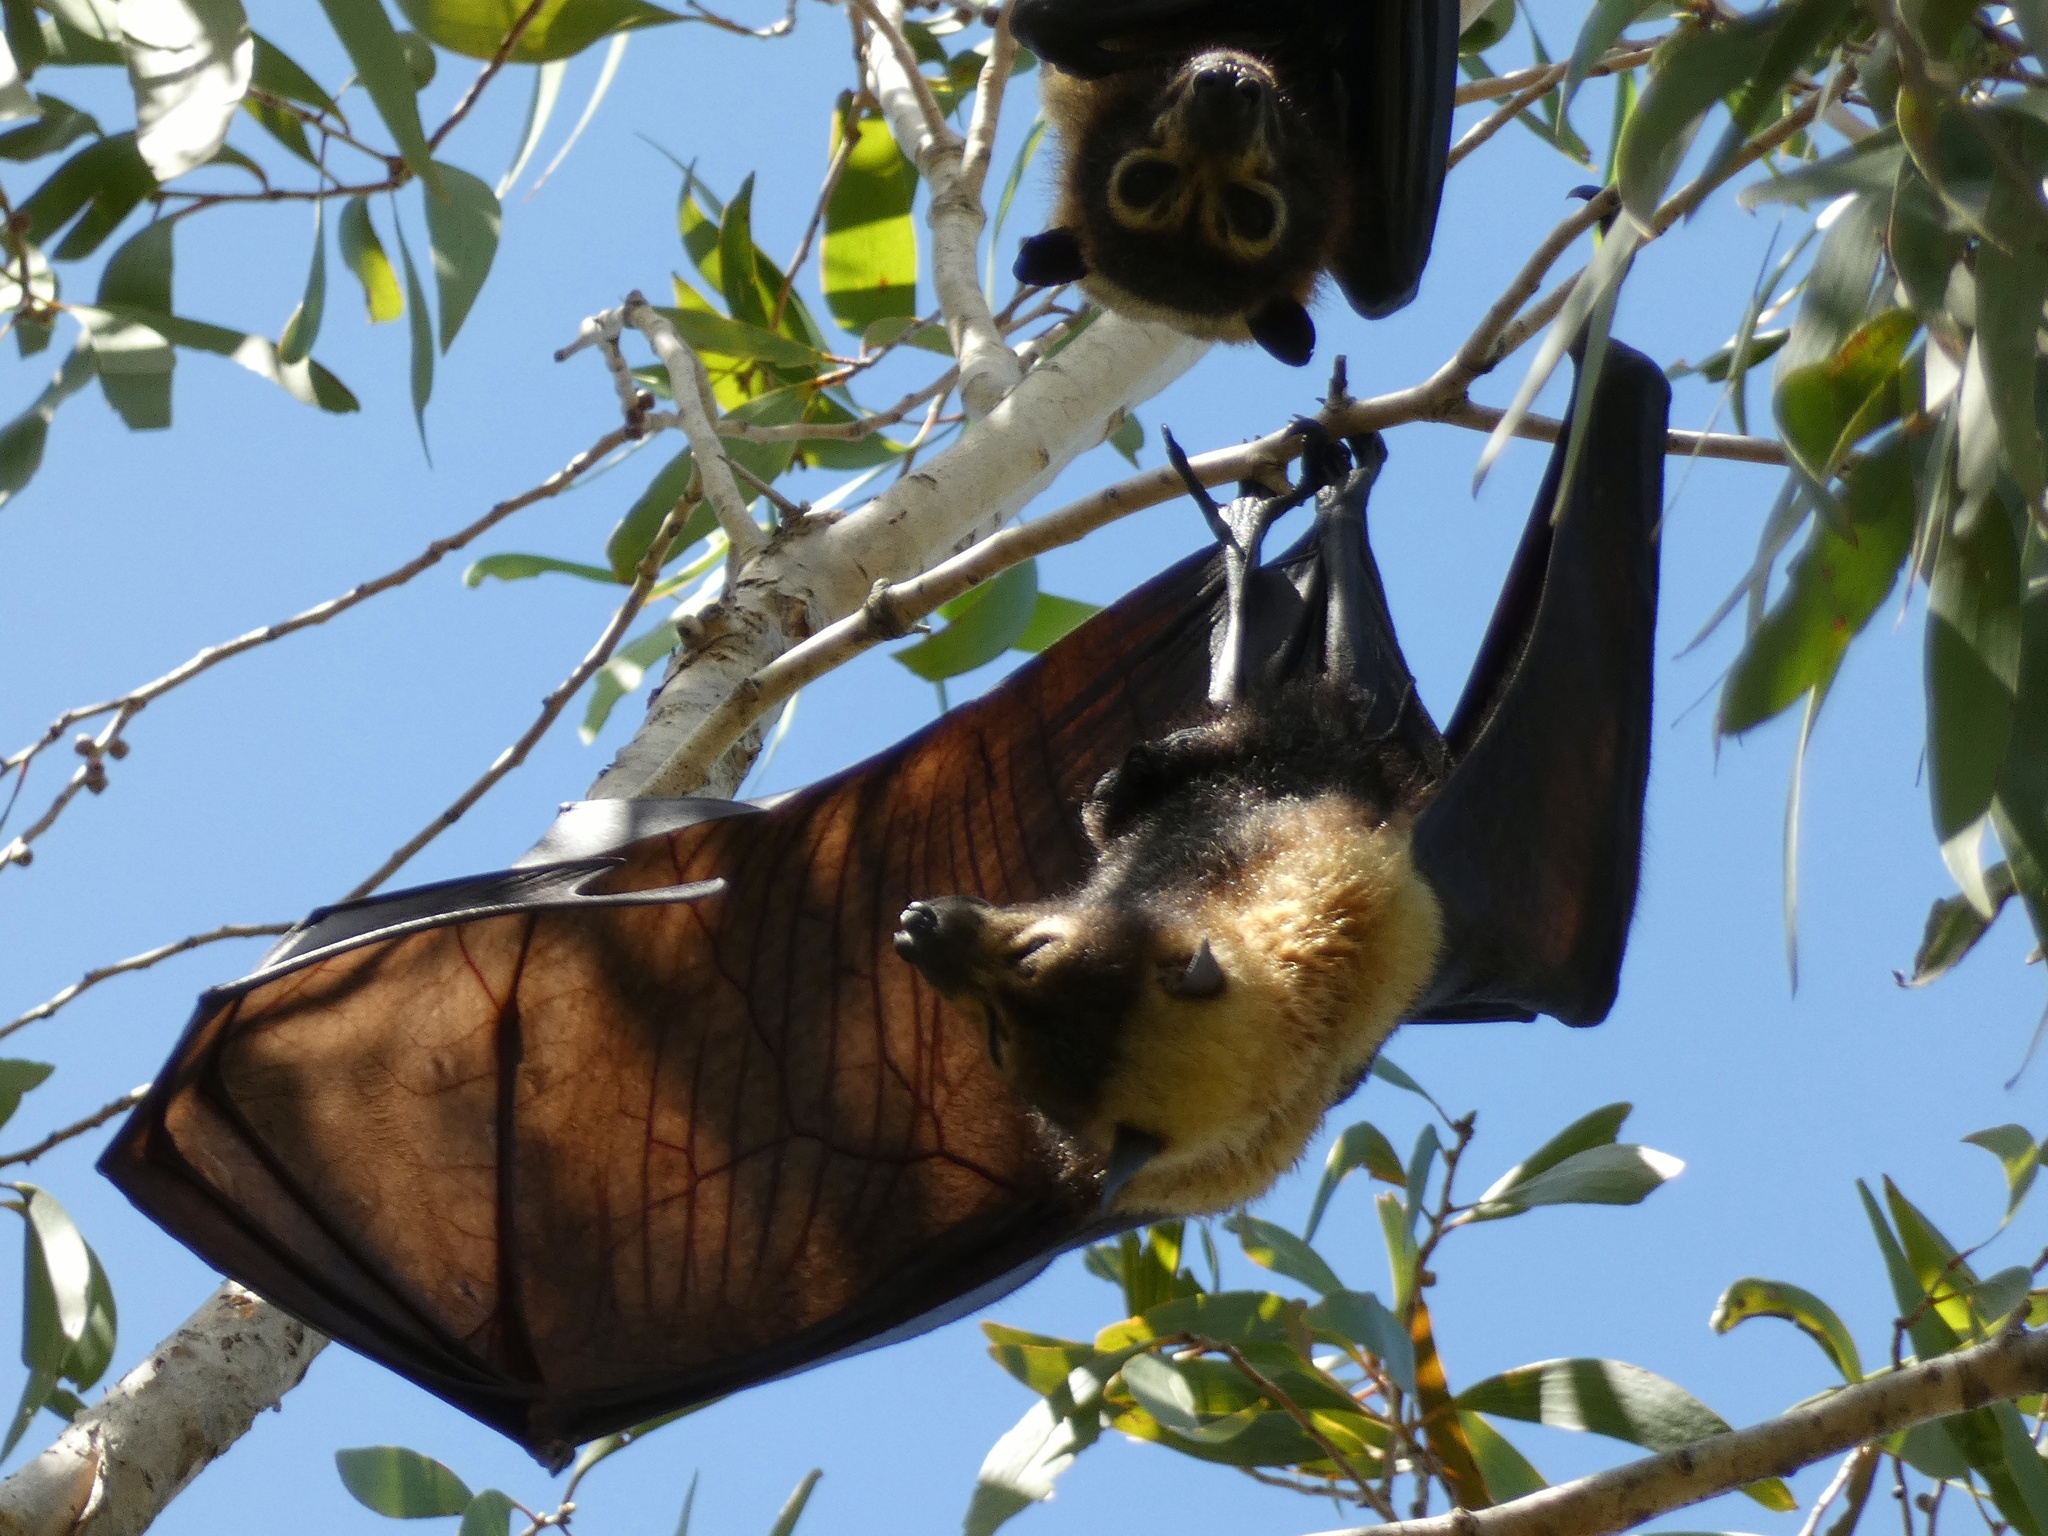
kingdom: Animalia
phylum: Chordata
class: Mammalia
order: Chiroptera
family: Pteropodidae
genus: Pteropus
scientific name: Pteropus conspicillatus
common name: Spectacled flying fox
